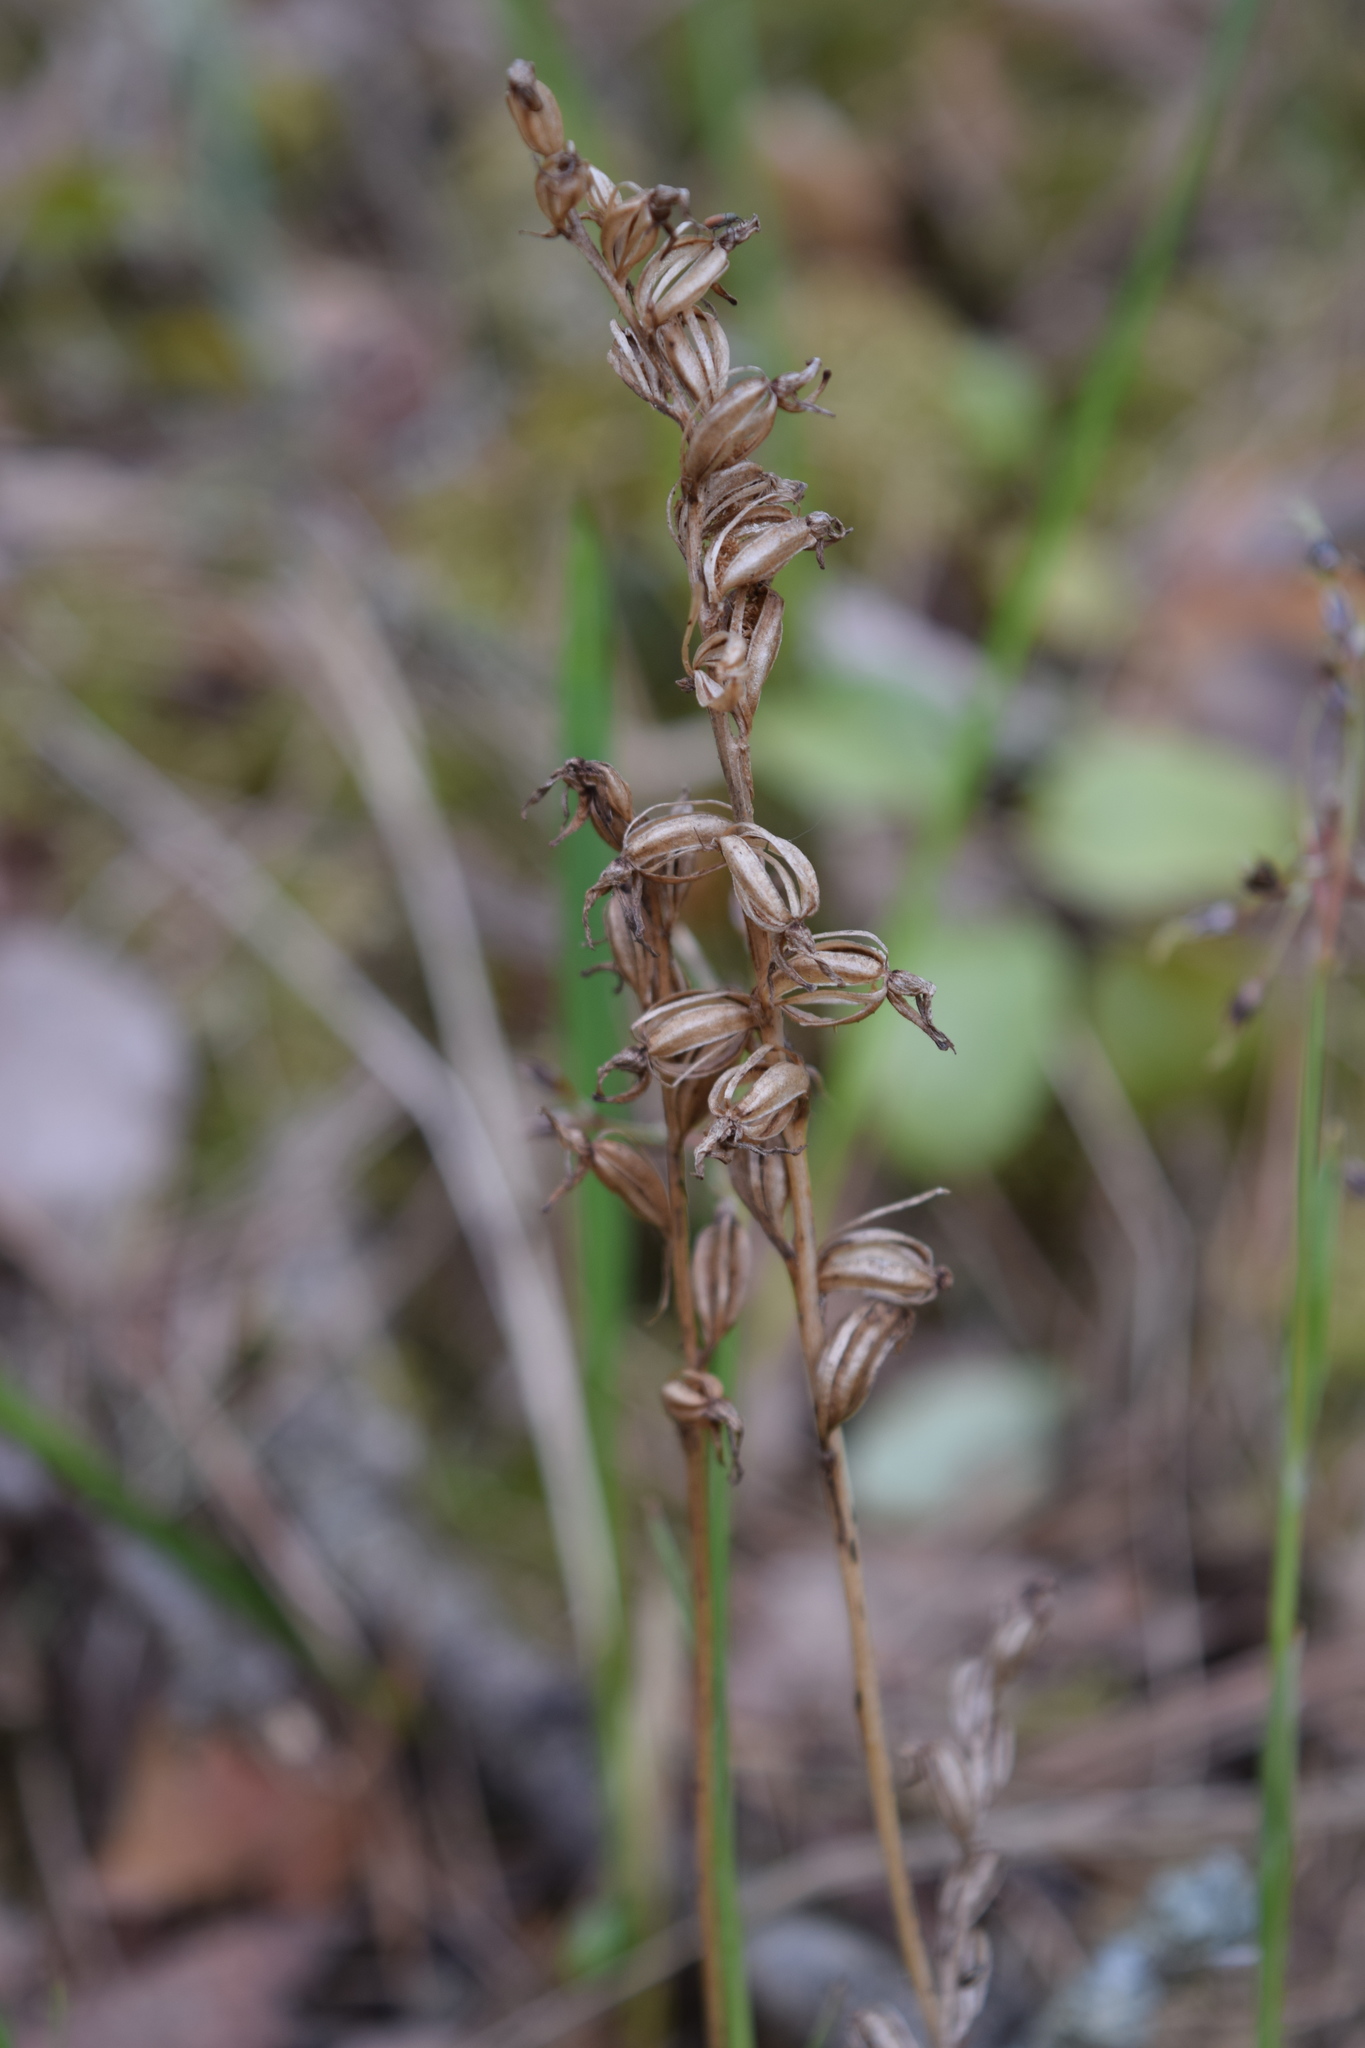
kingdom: Plantae
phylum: Tracheophyta
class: Liliopsida
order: Asparagales
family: Orchidaceae
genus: Goodyera
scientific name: Goodyera repens
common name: Creeping lady's-tresses
